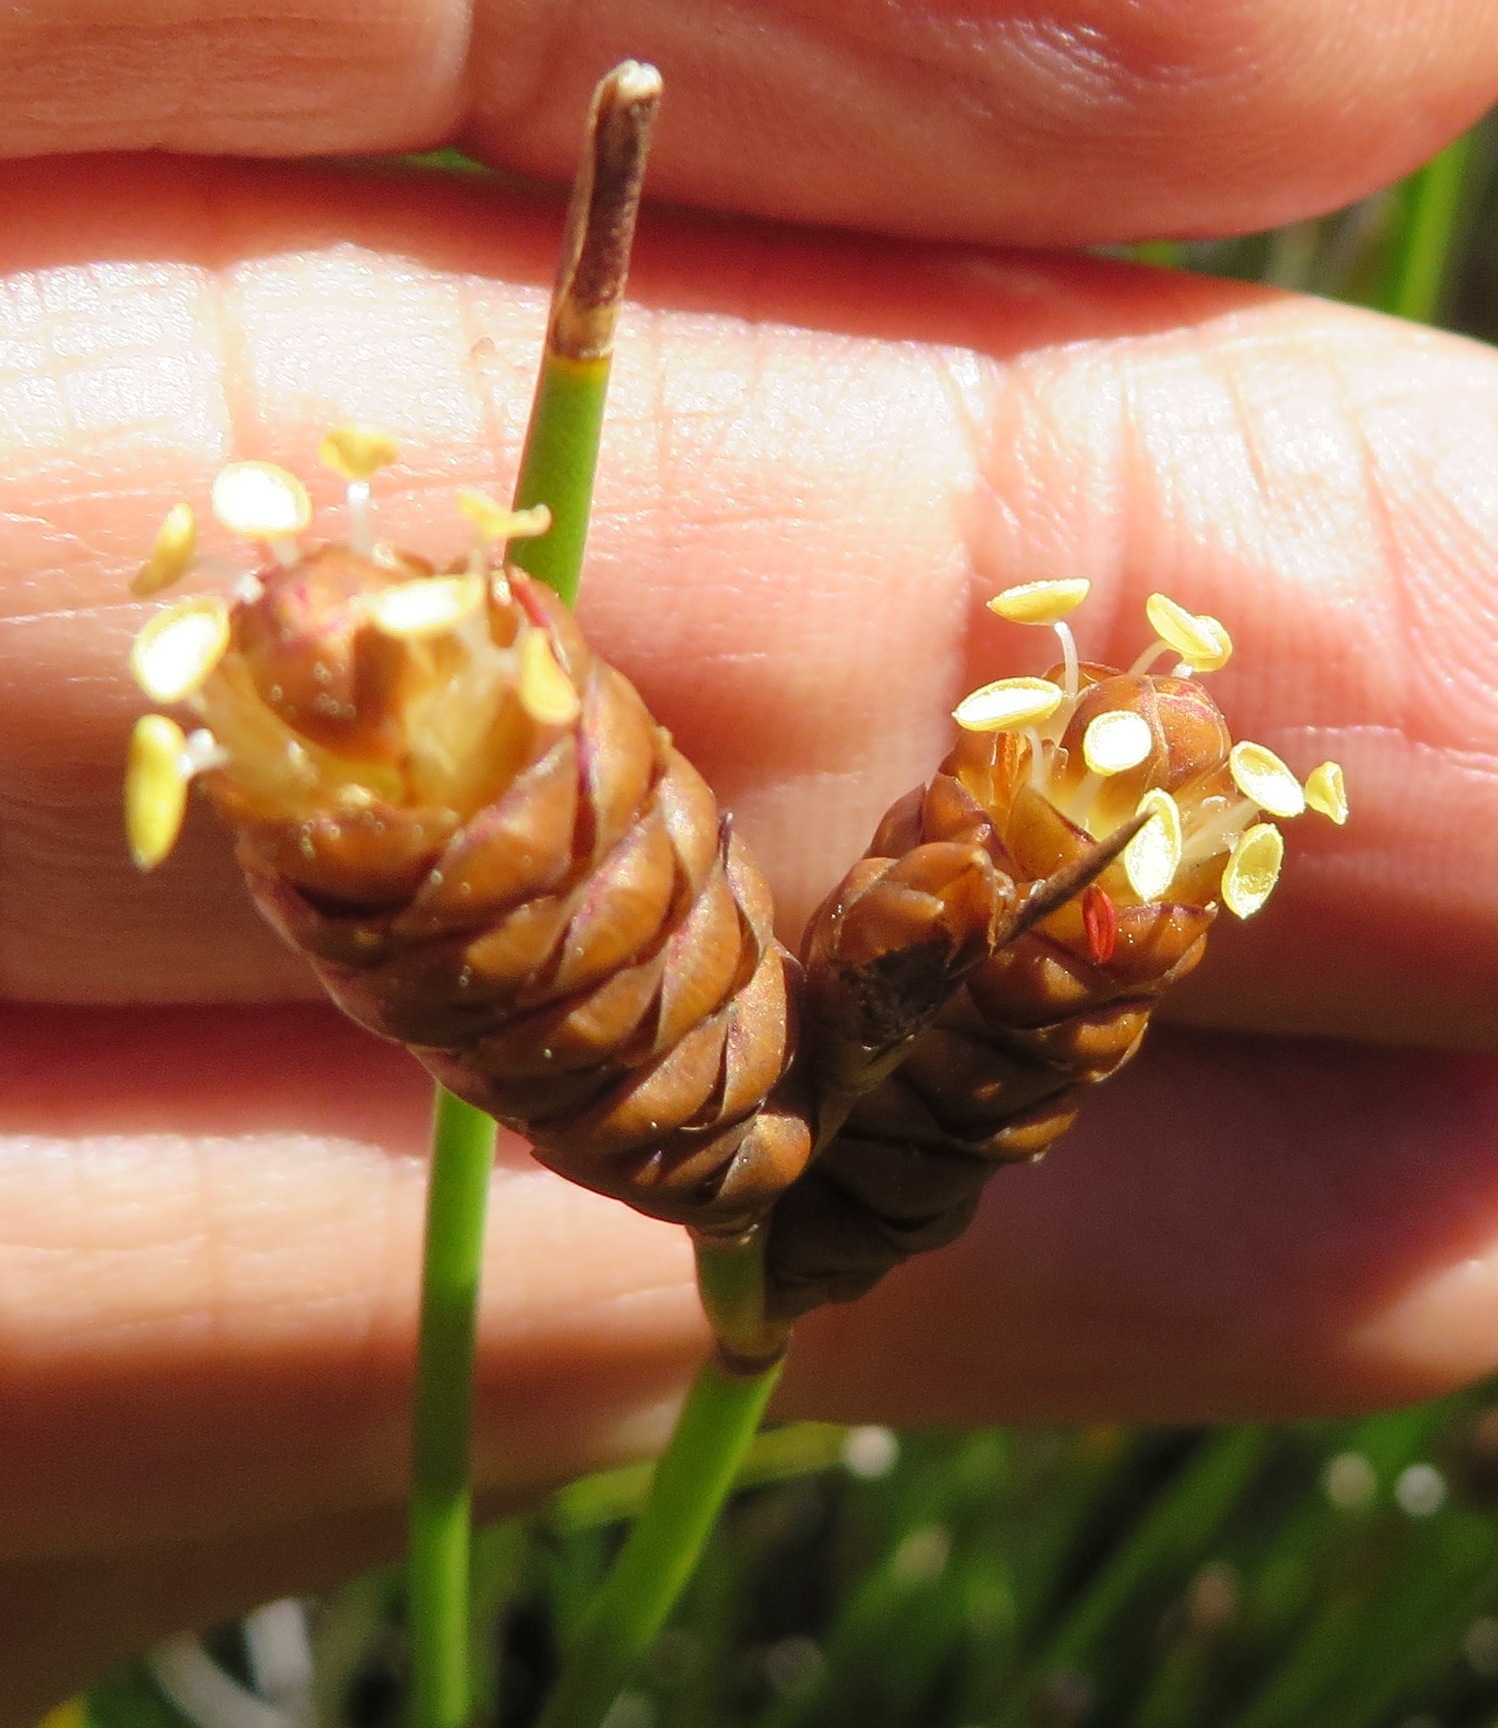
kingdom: Plantae
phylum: Tracheophyta
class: Liliopsida
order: Poales
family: Restionaceae
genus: Nevillea
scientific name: Nevillea obtusissimus
